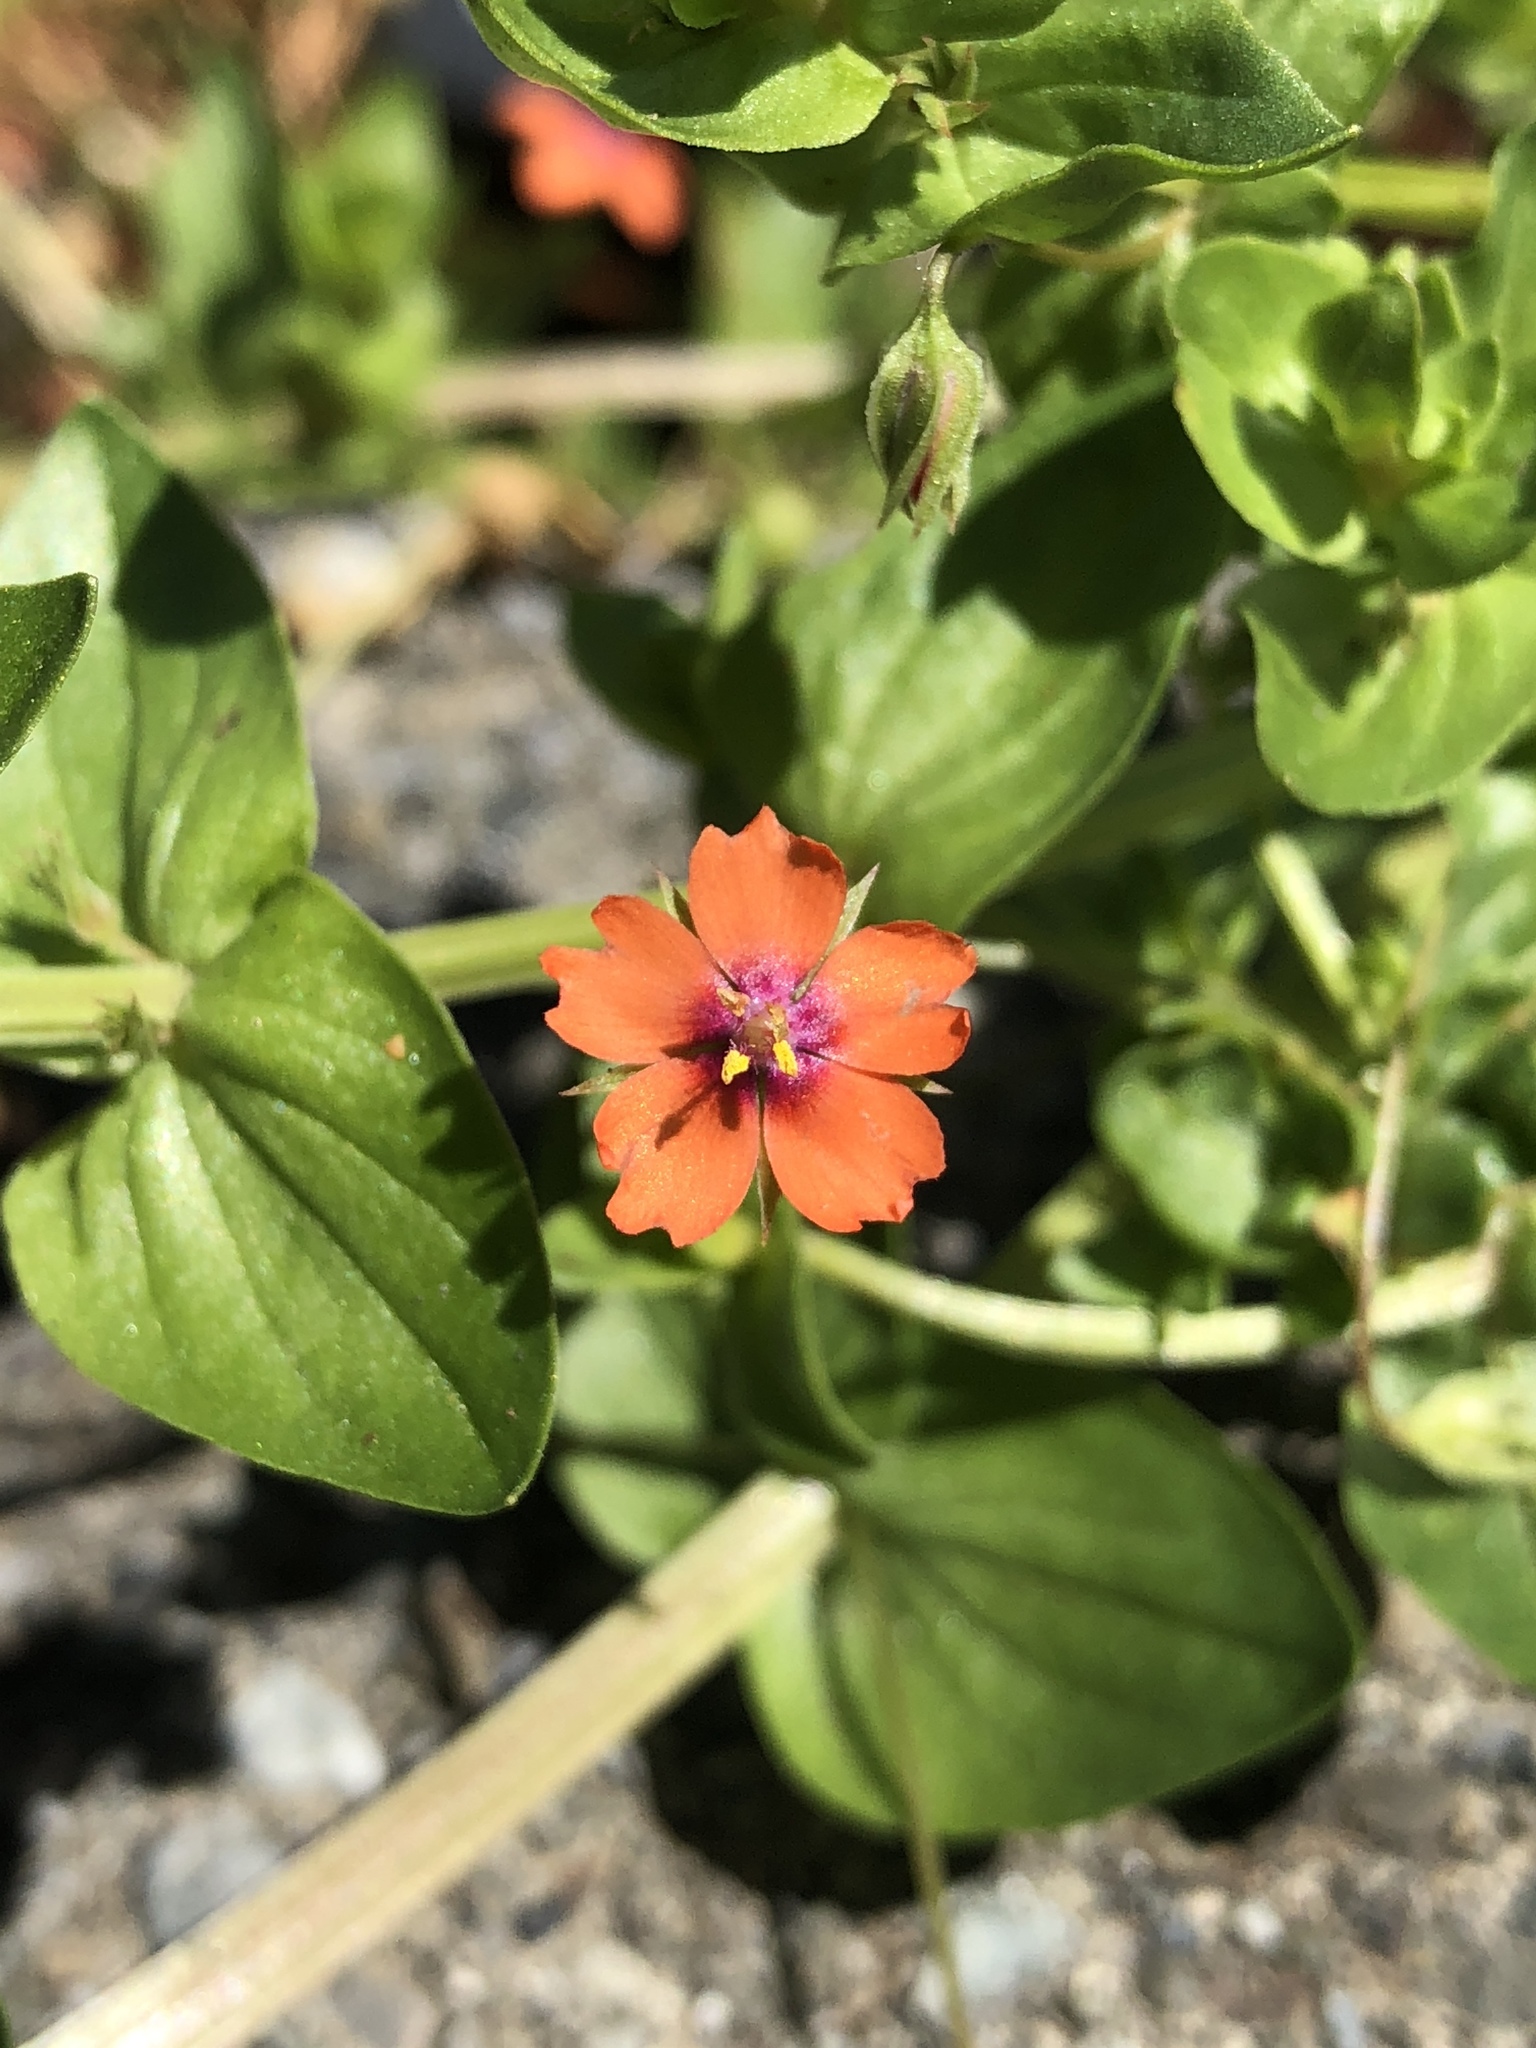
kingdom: Plantae
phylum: Tracheophyta
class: Magnoliopsida
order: Ericales
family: Primulaceae
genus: Lysimachia
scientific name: Lysimachia arvensis
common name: Scarlet pimpernel
